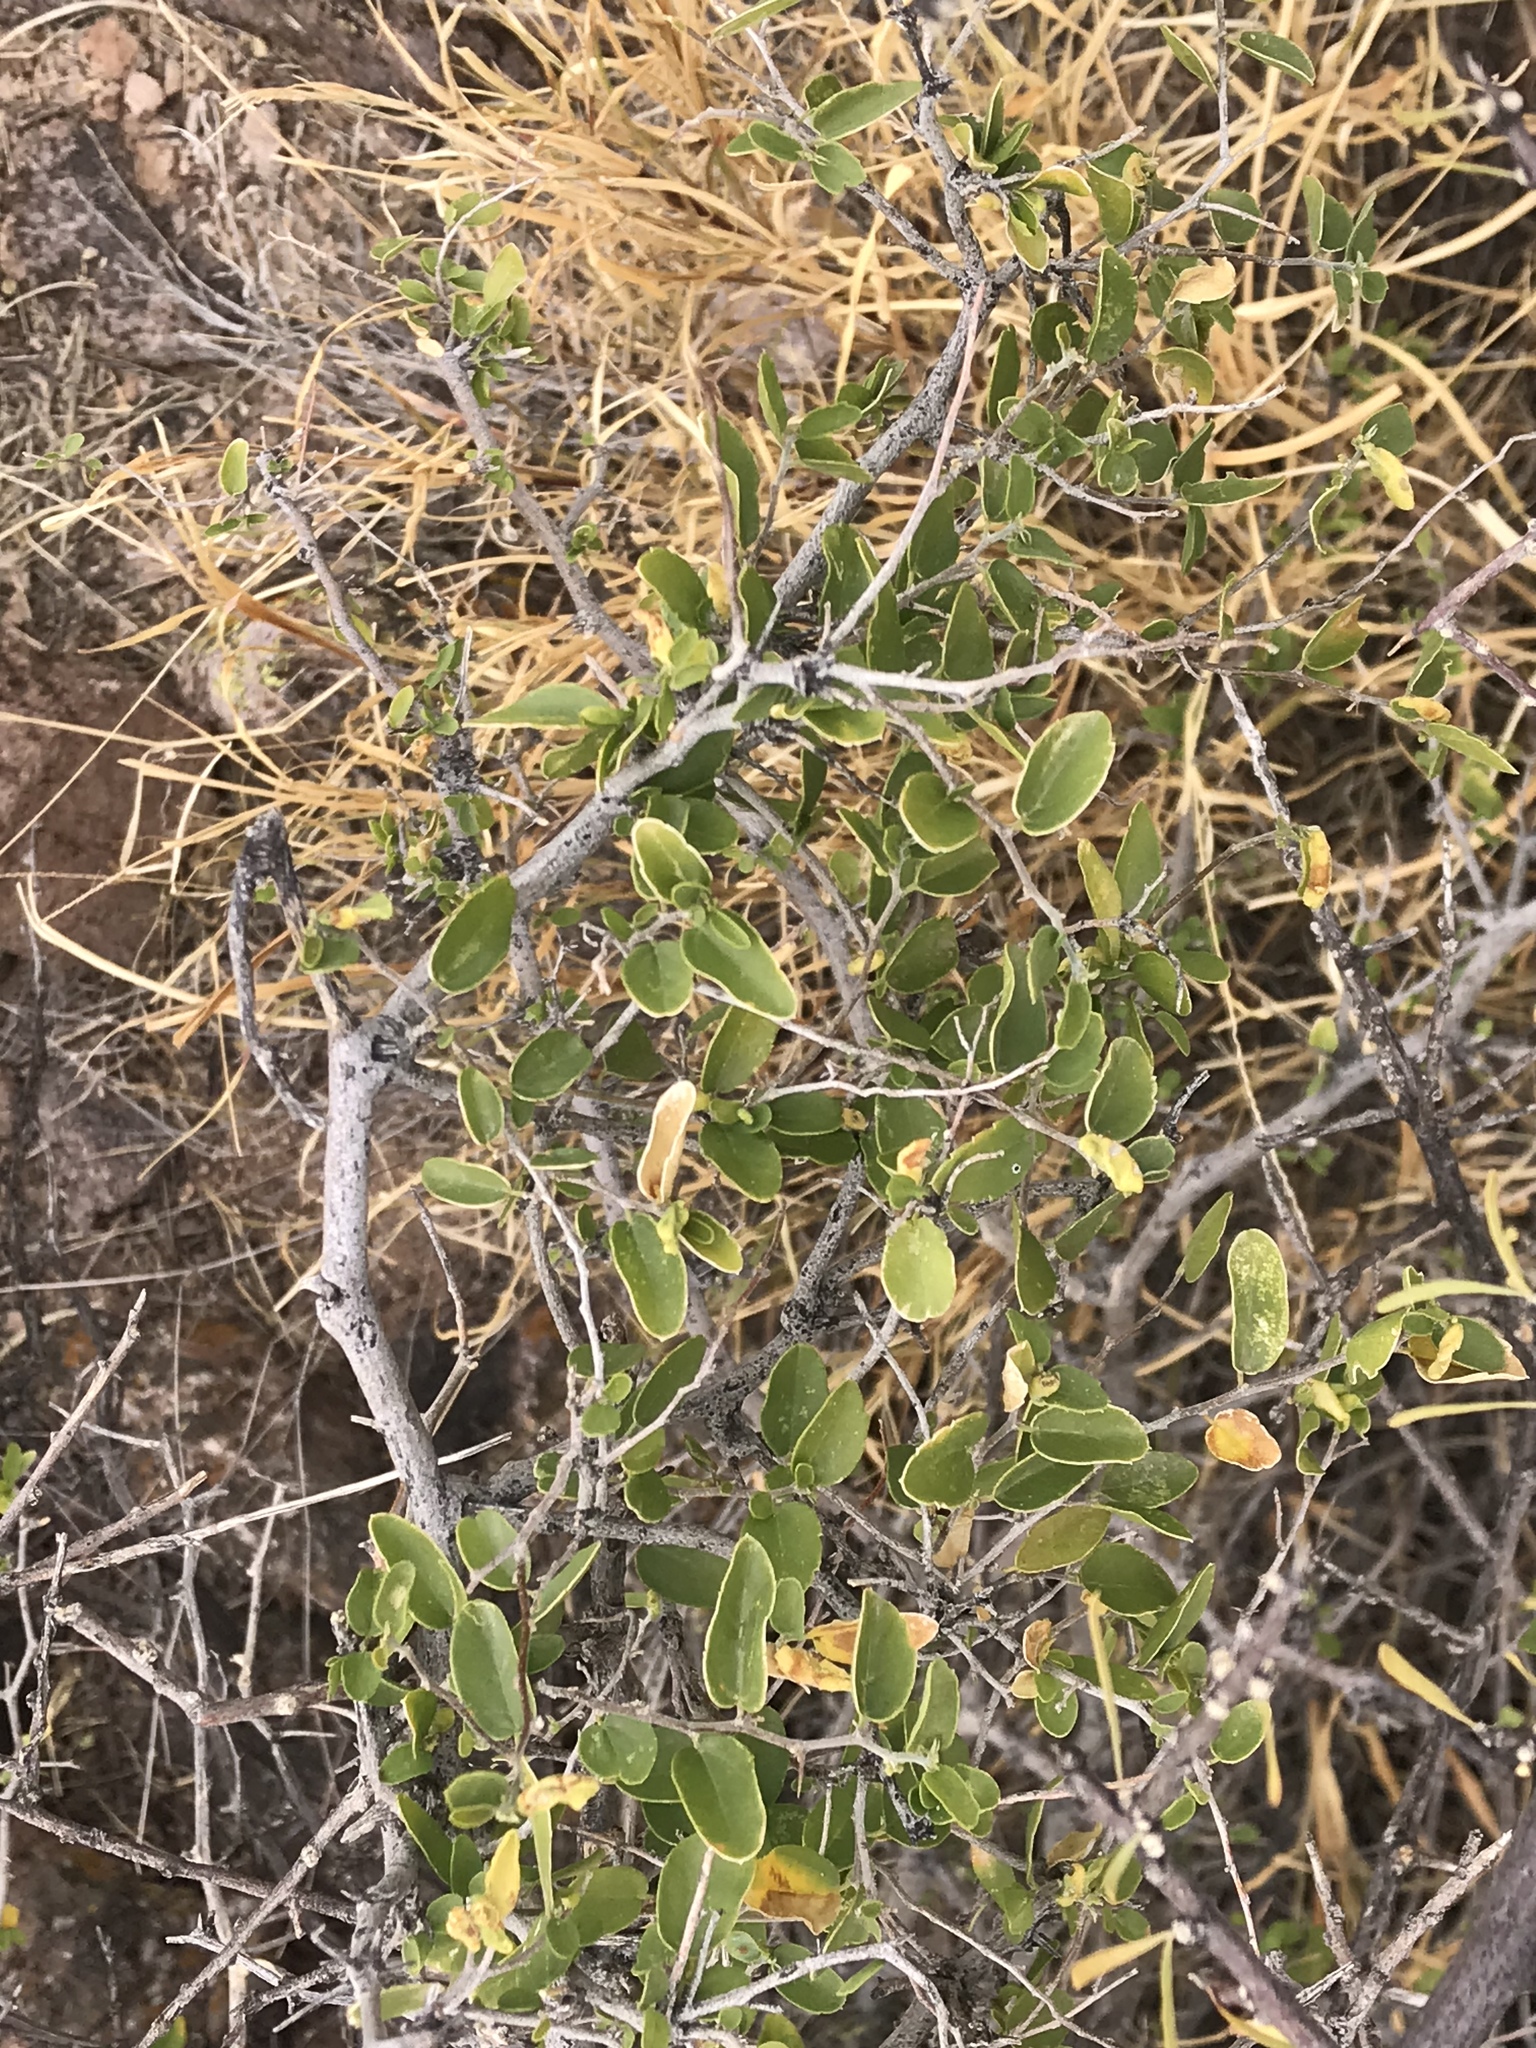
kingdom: Plantae
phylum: Tracheophyta
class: Magnoliopsida
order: Rosales
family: Cannabaceae
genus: Celtis
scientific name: Celtis pallida
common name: Desert hackberry
